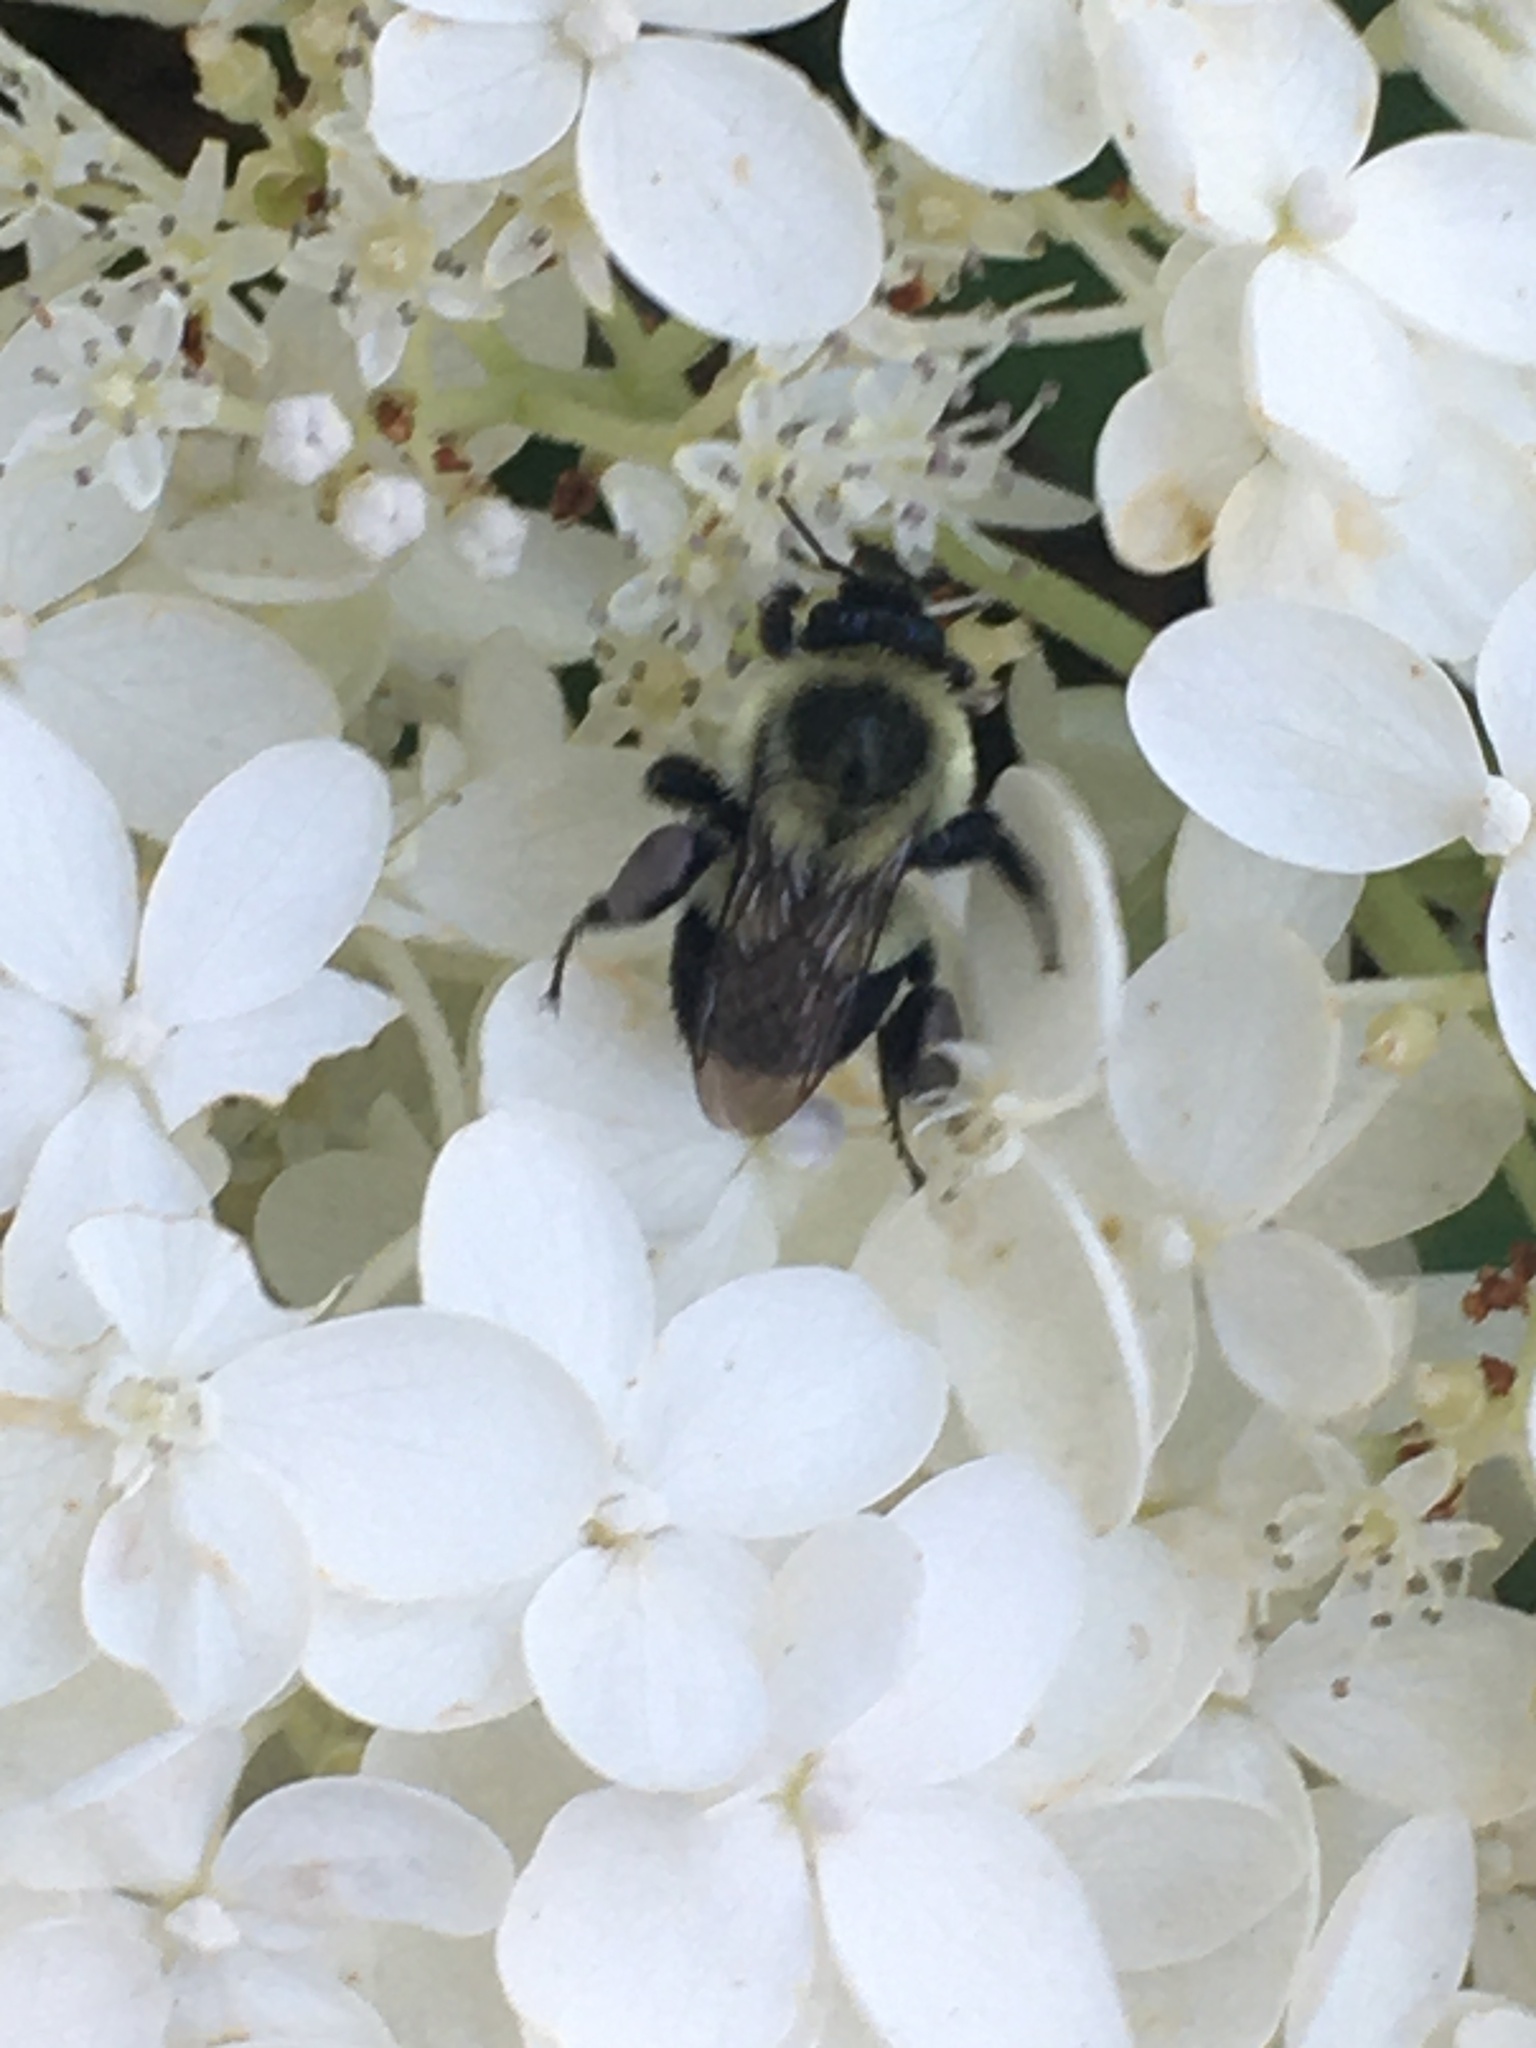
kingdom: Animalia
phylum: Arthropoda
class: Insecta
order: Hymenoptera
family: Apidae
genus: Bombus
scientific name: Bombus impatiens
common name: Common eastern bumble bee
